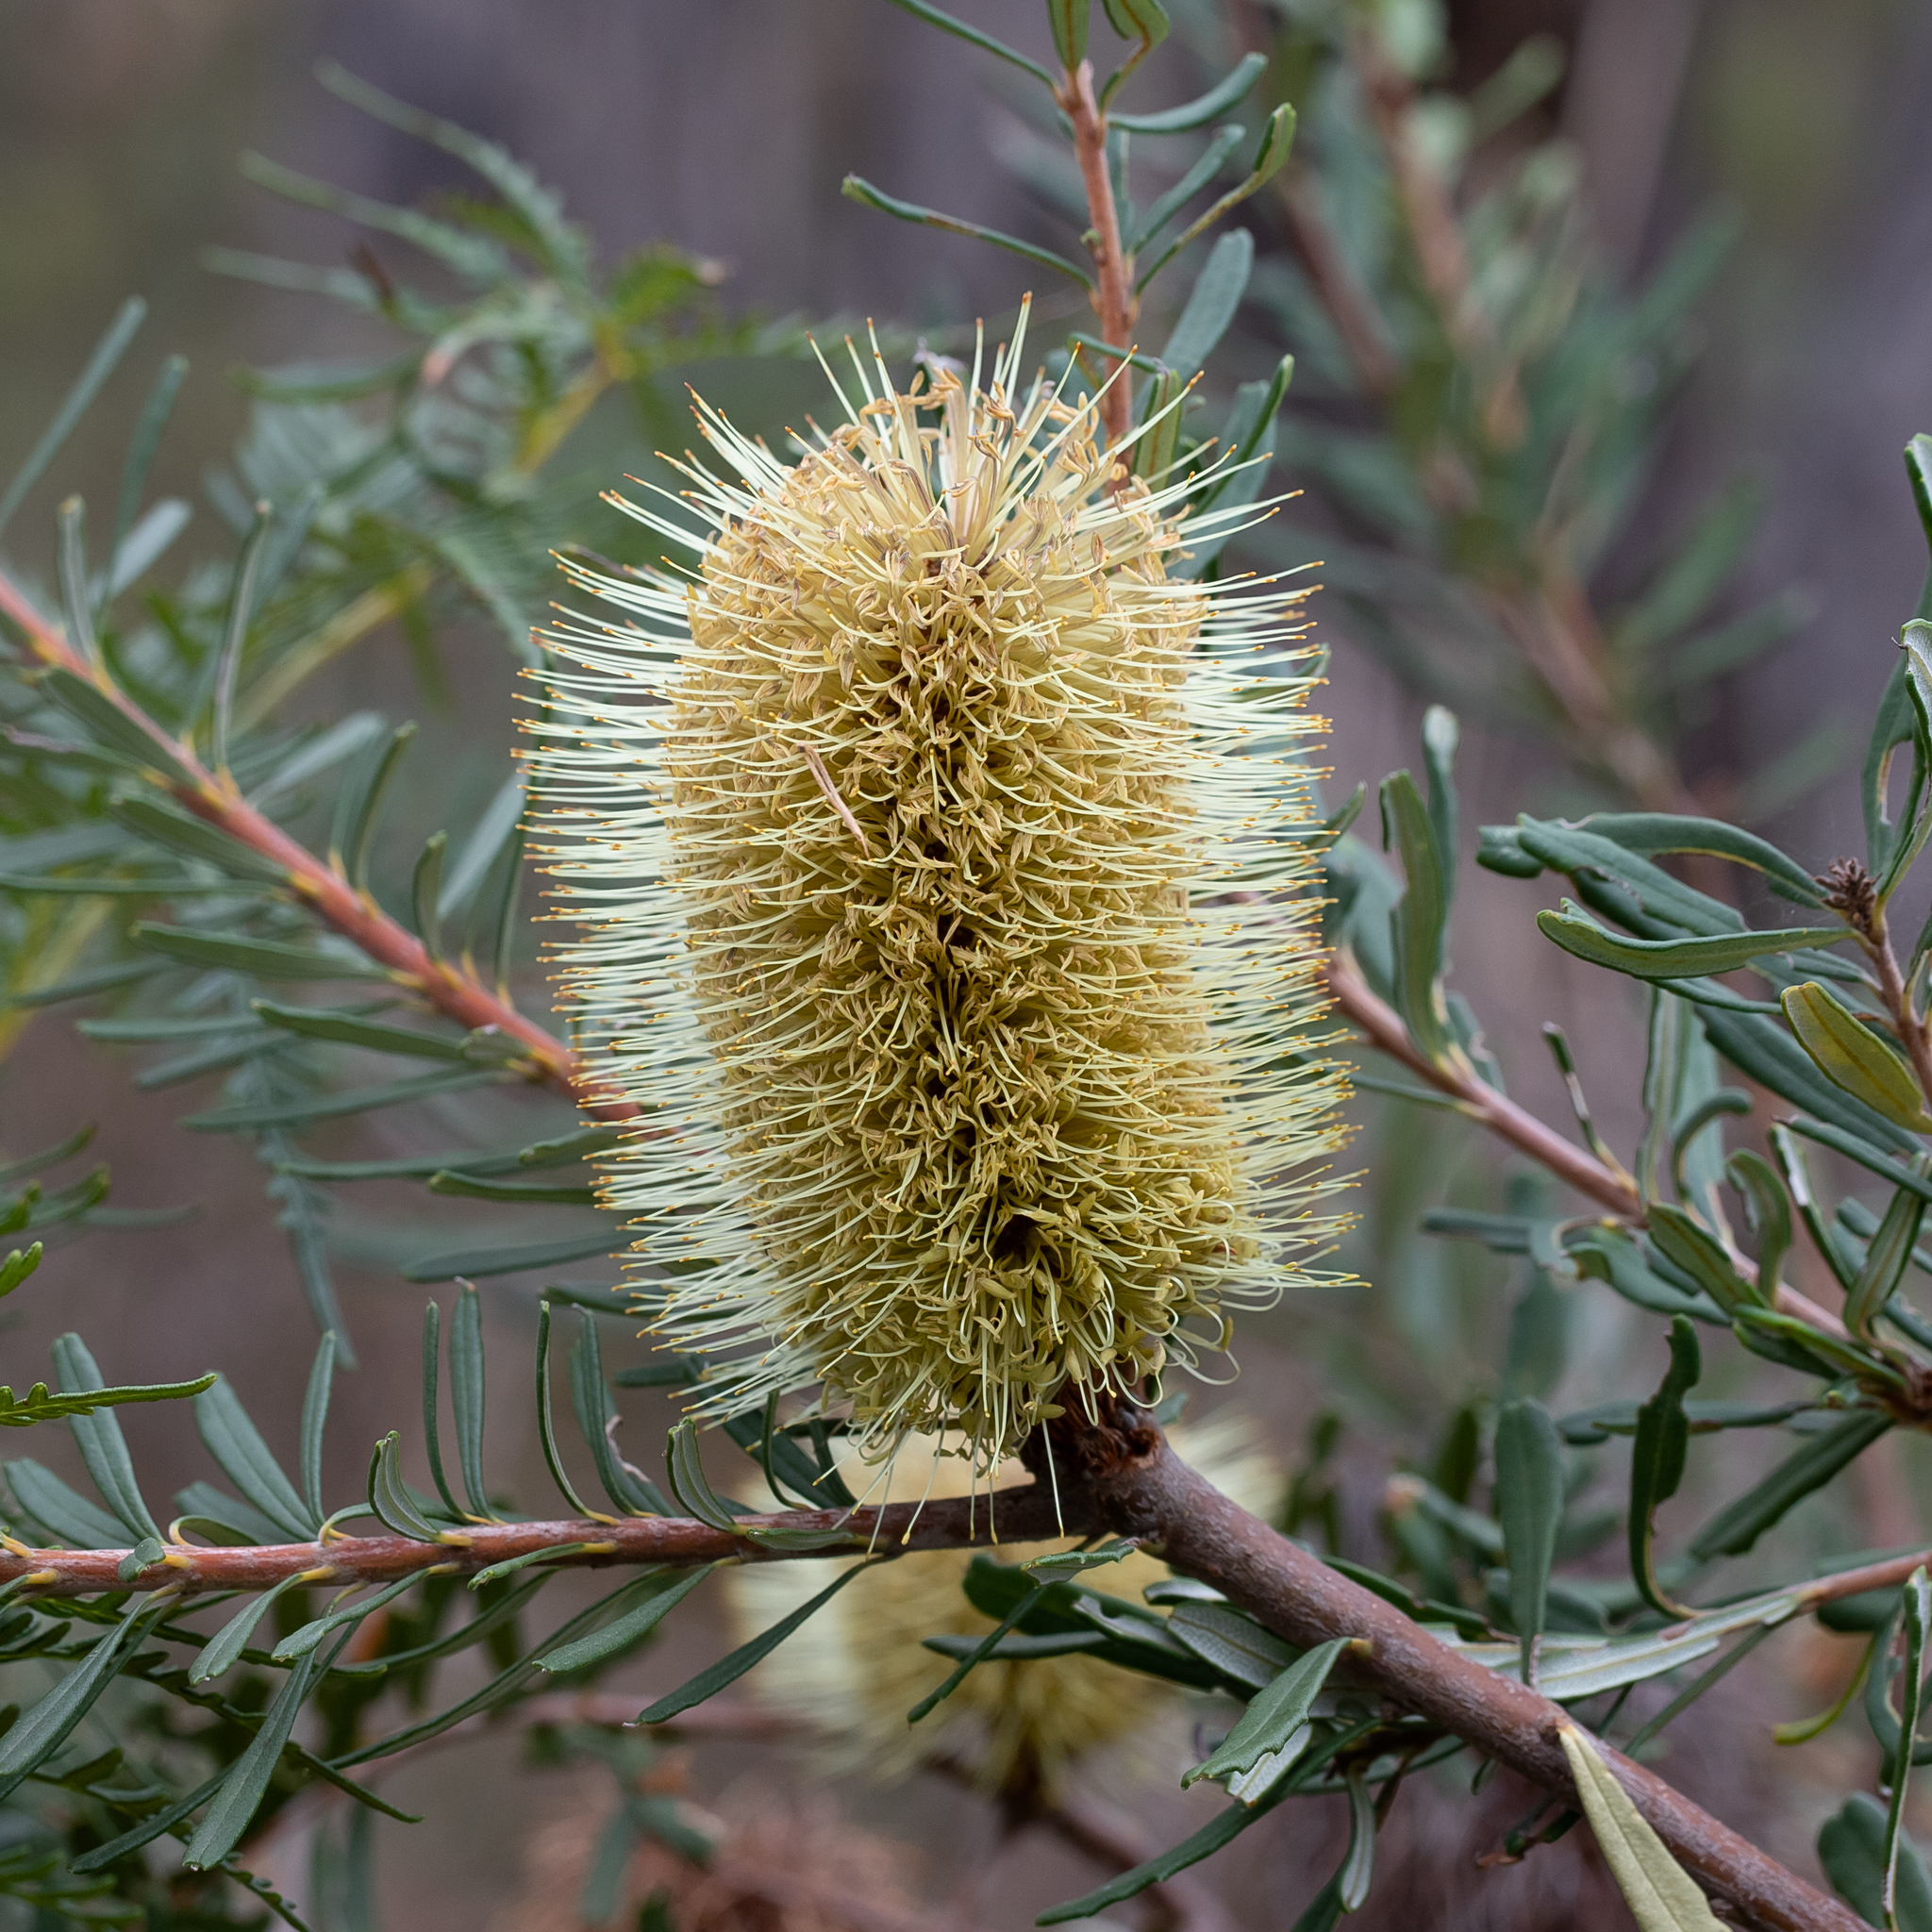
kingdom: Plantae
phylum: Tracheophyta
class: Magnoliopsida
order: Proteales
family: Proteaceae
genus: Banksia
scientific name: Banksia marginata
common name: Silver banksia
